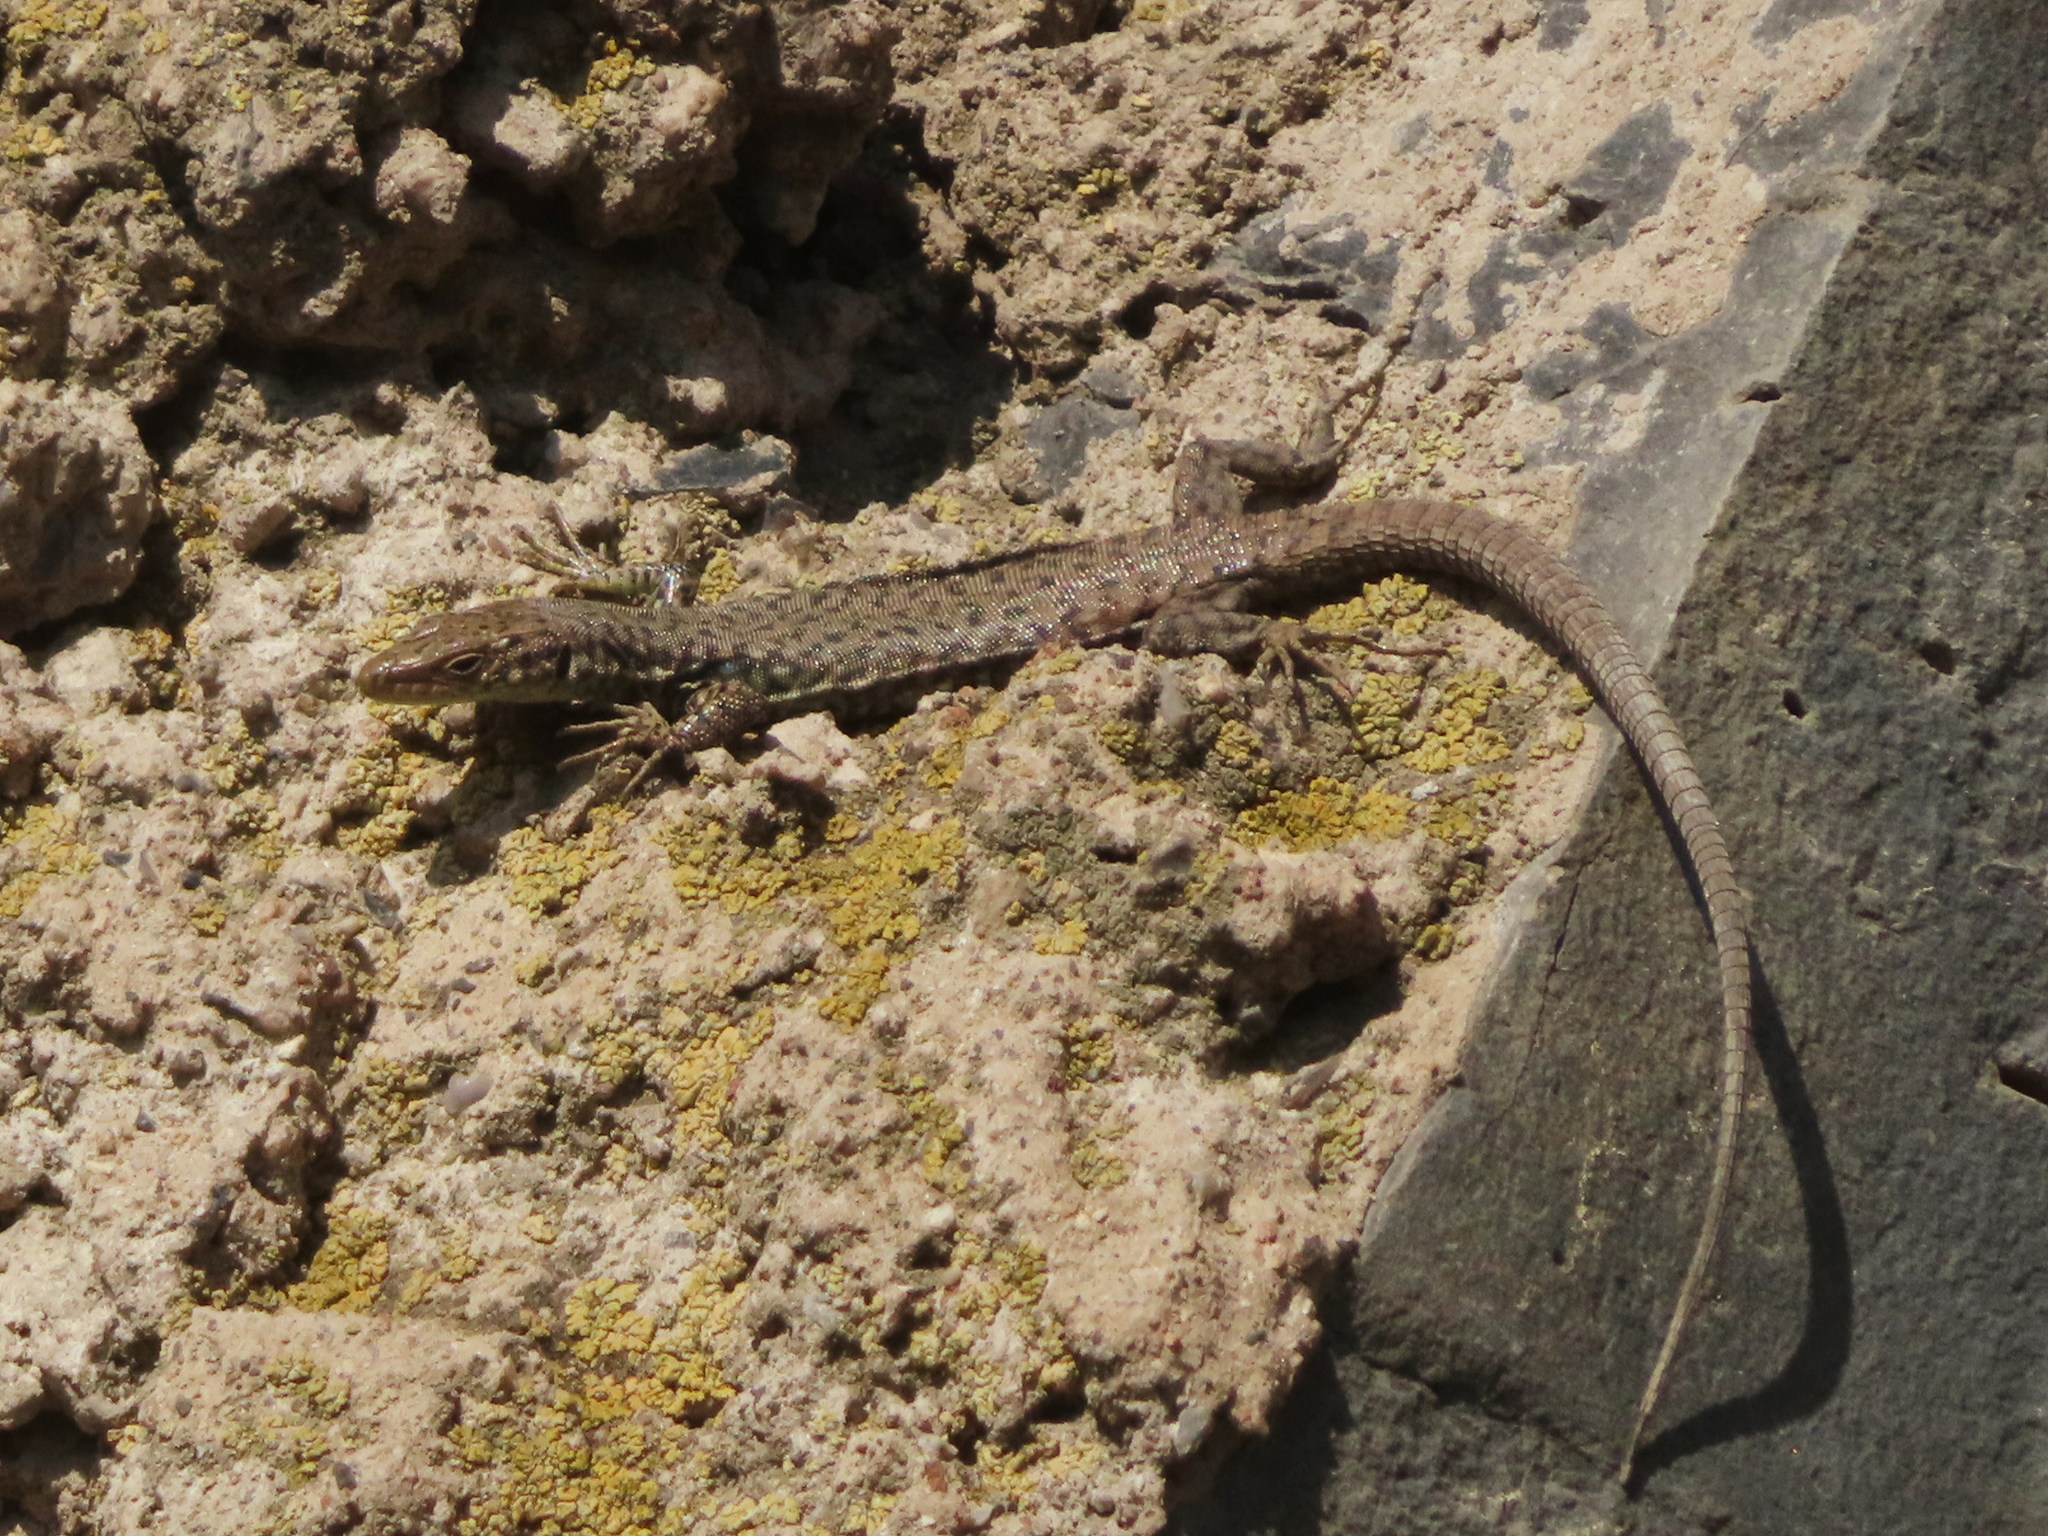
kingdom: Animalia
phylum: Chordata
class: Squamata
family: Lacertidae
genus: Darevskia
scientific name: Darevskia
